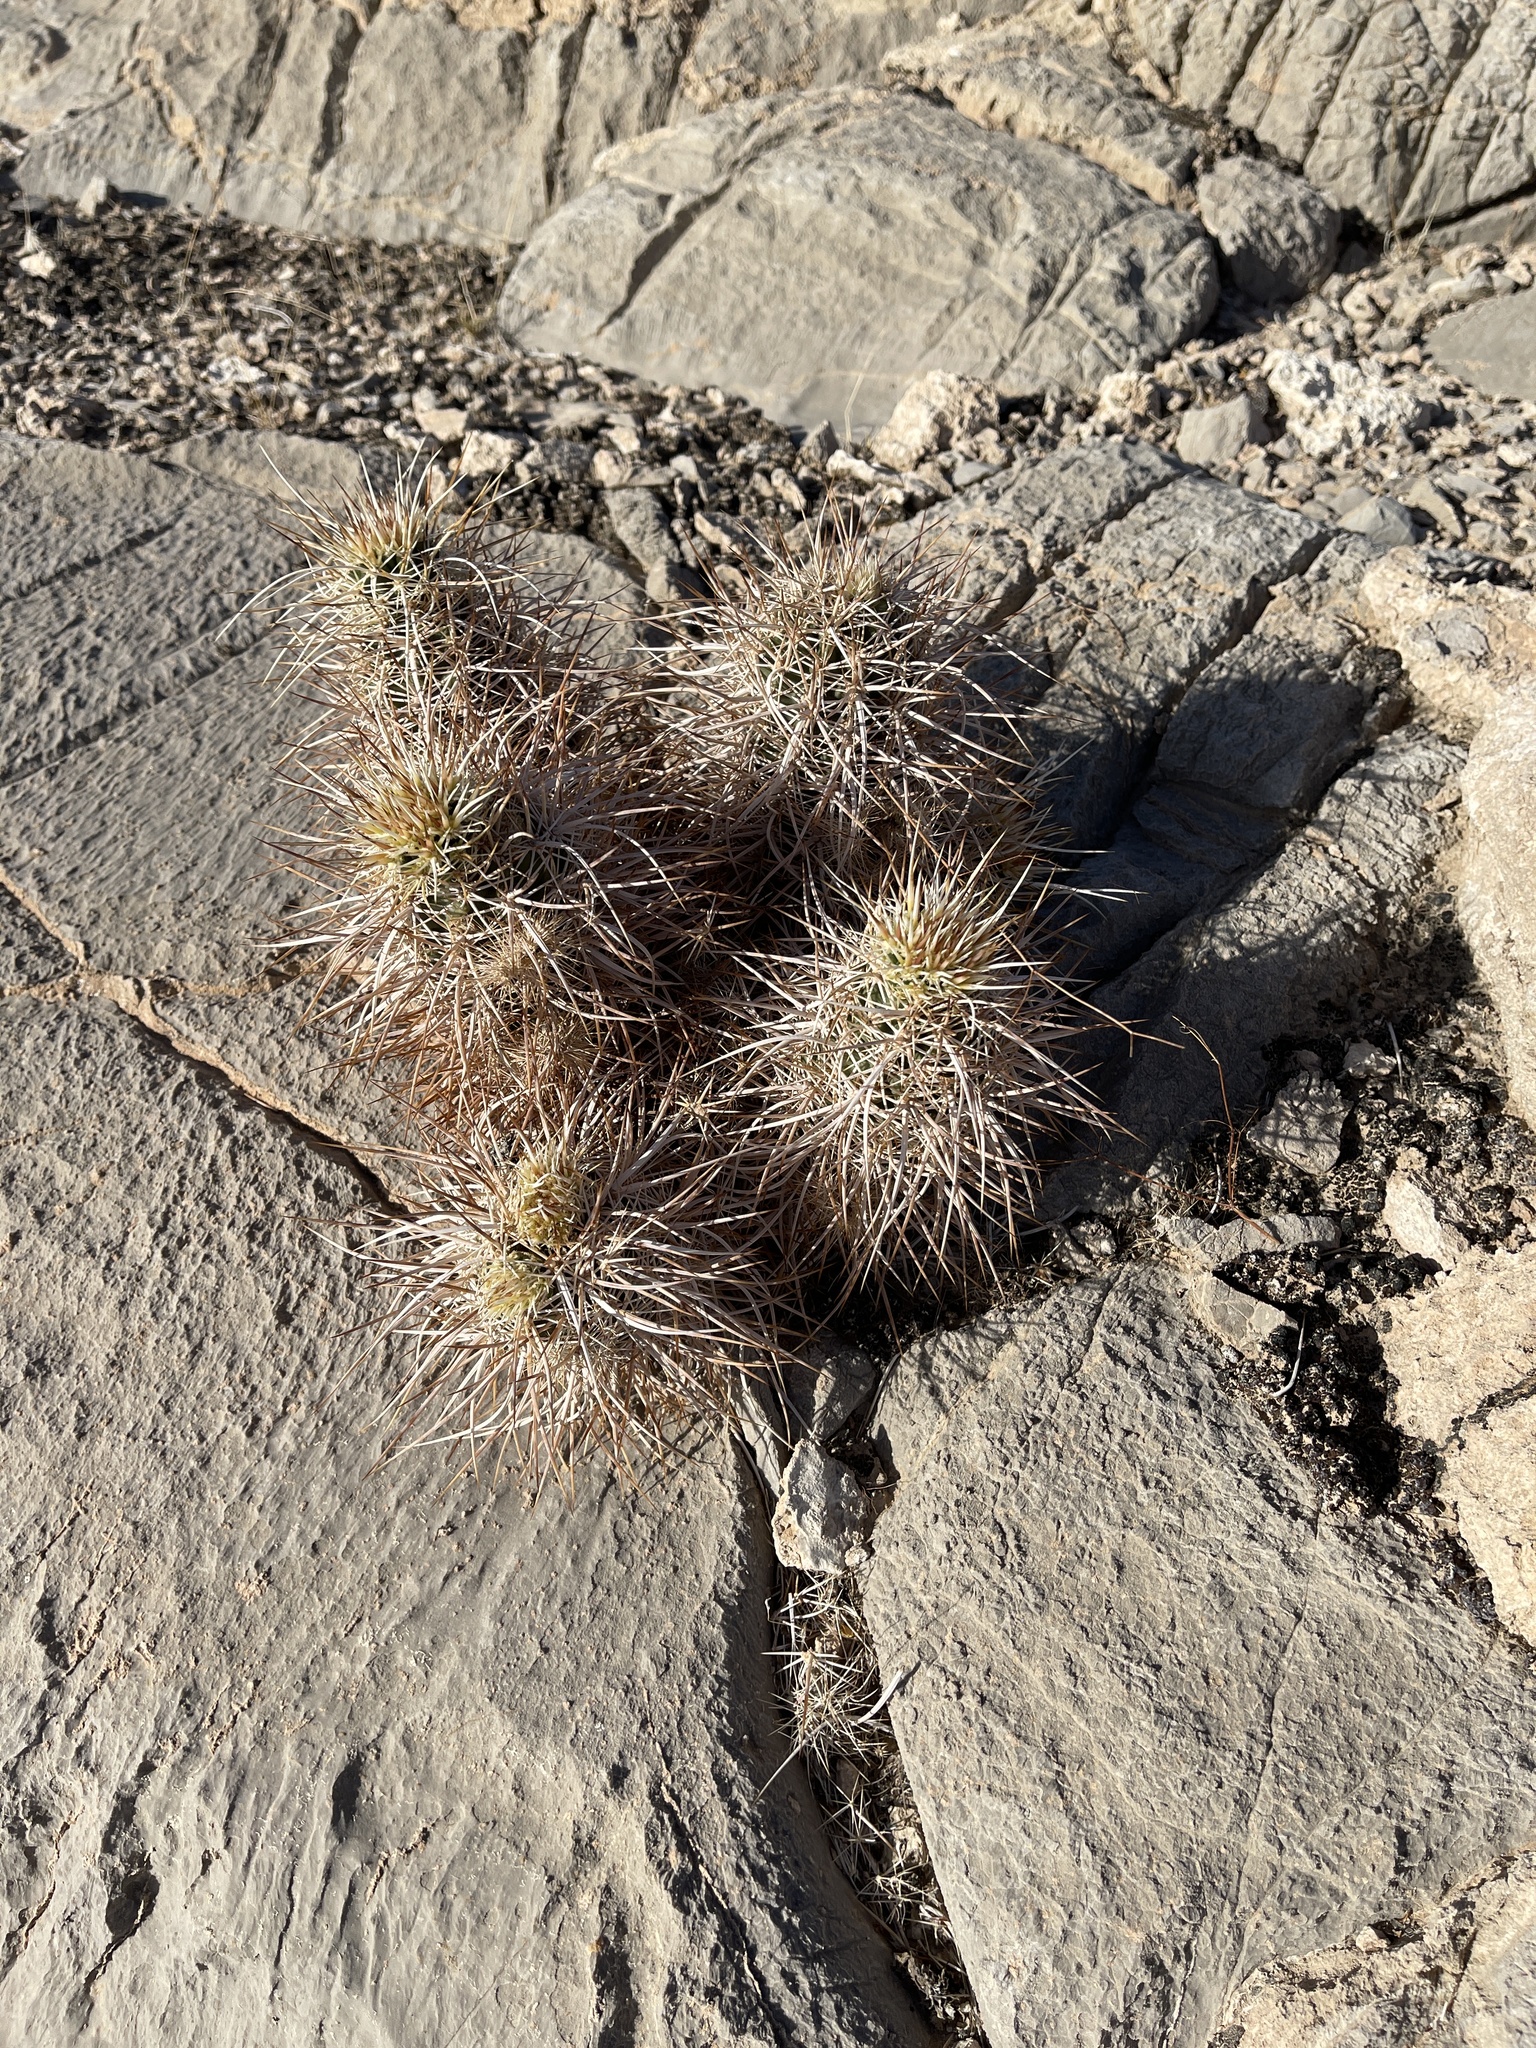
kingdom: Plantae
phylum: Tracheophyta
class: Magnoliopsida
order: Caryophyllales
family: Cactaceae
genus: Echinocereus
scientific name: Echinocereus engelmannii
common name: Engelmann's hedgehog cactus
